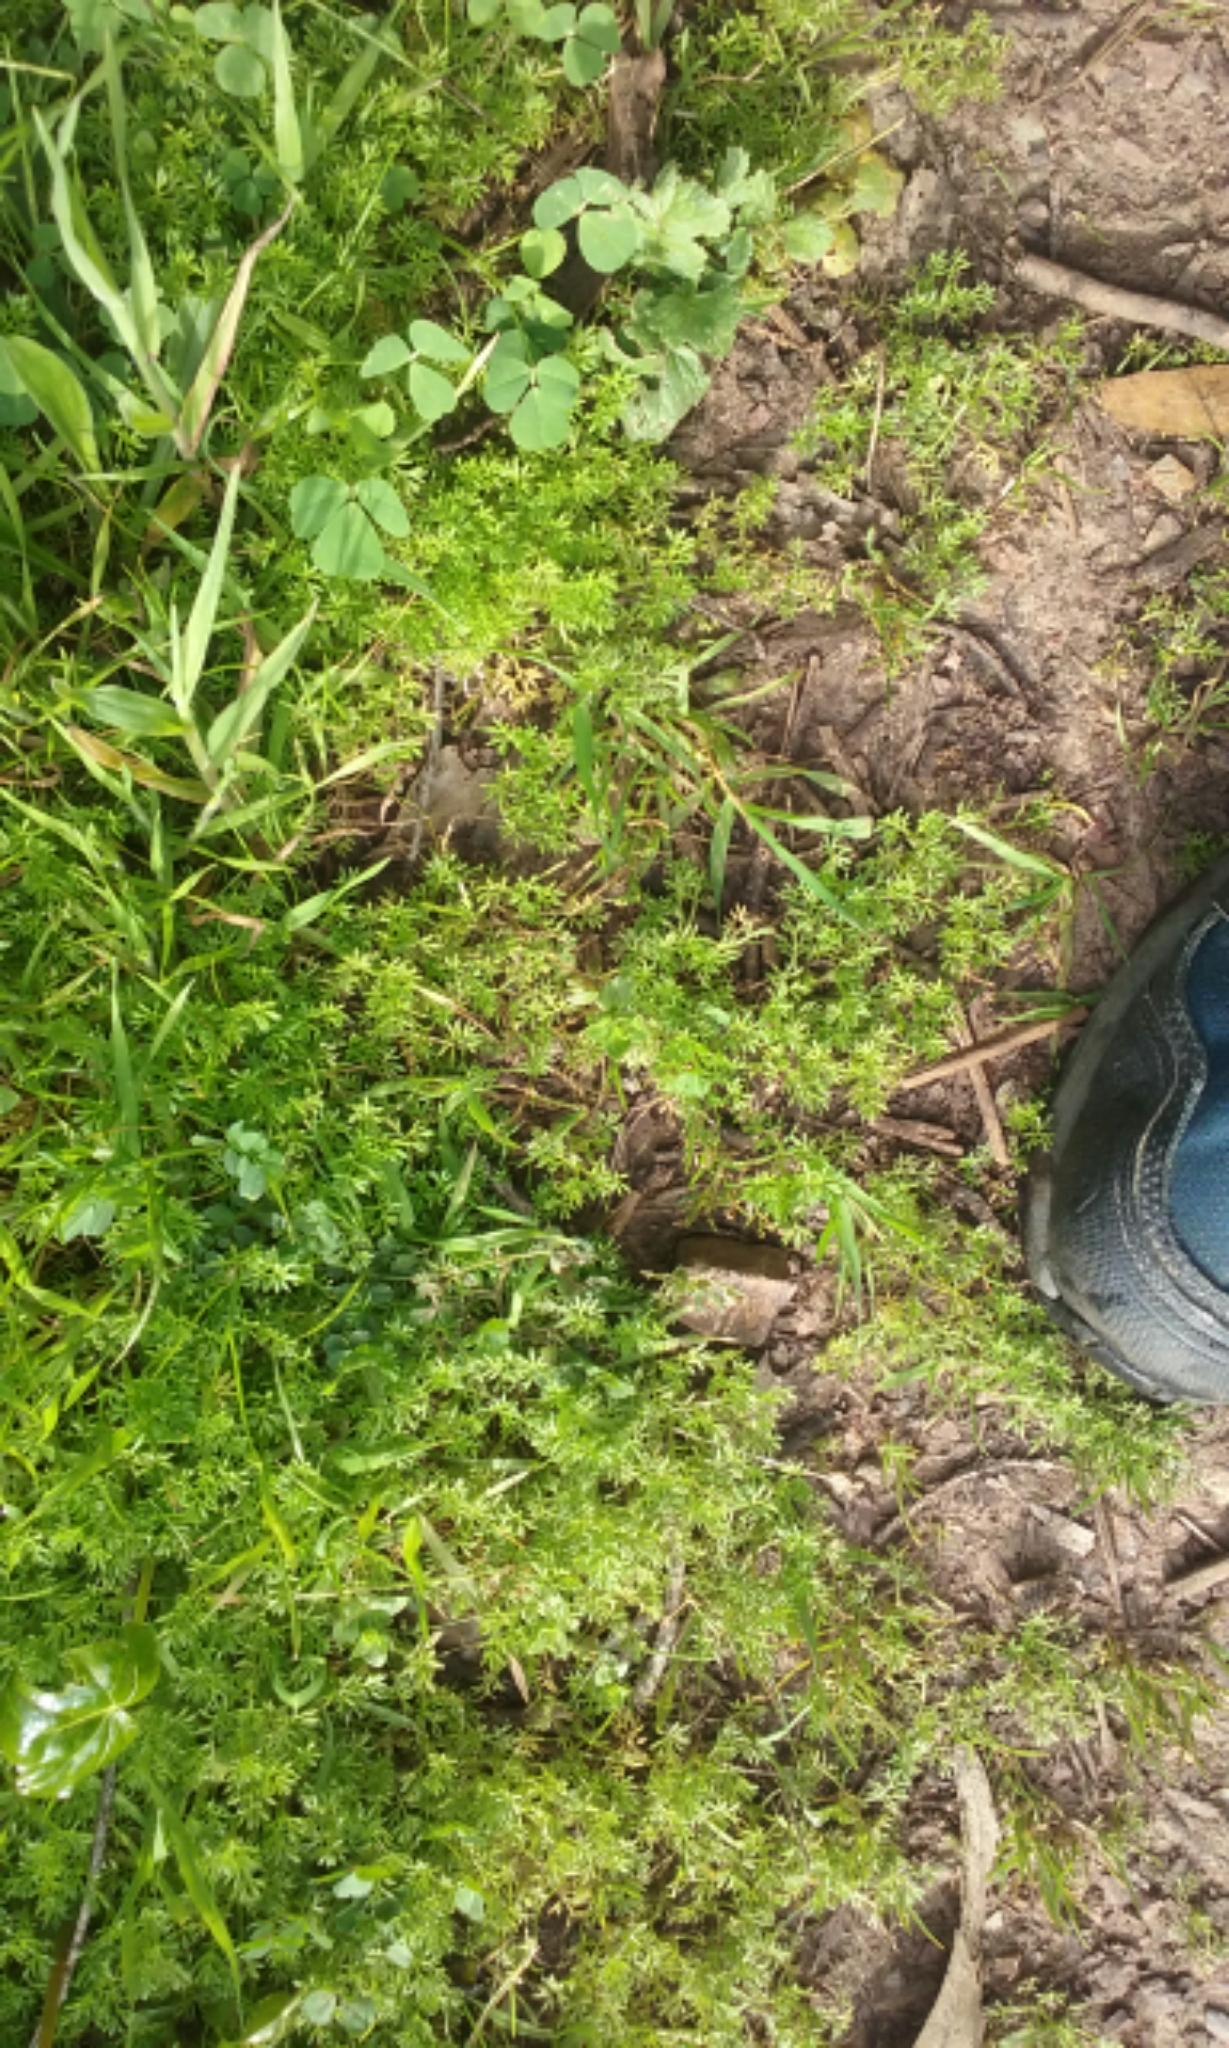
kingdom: Plantae
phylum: Tracheophyta
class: Magnoliopsida
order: Asterales
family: Asteraceae
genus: Soliva
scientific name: Soliva sessilis
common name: Field burrweed
